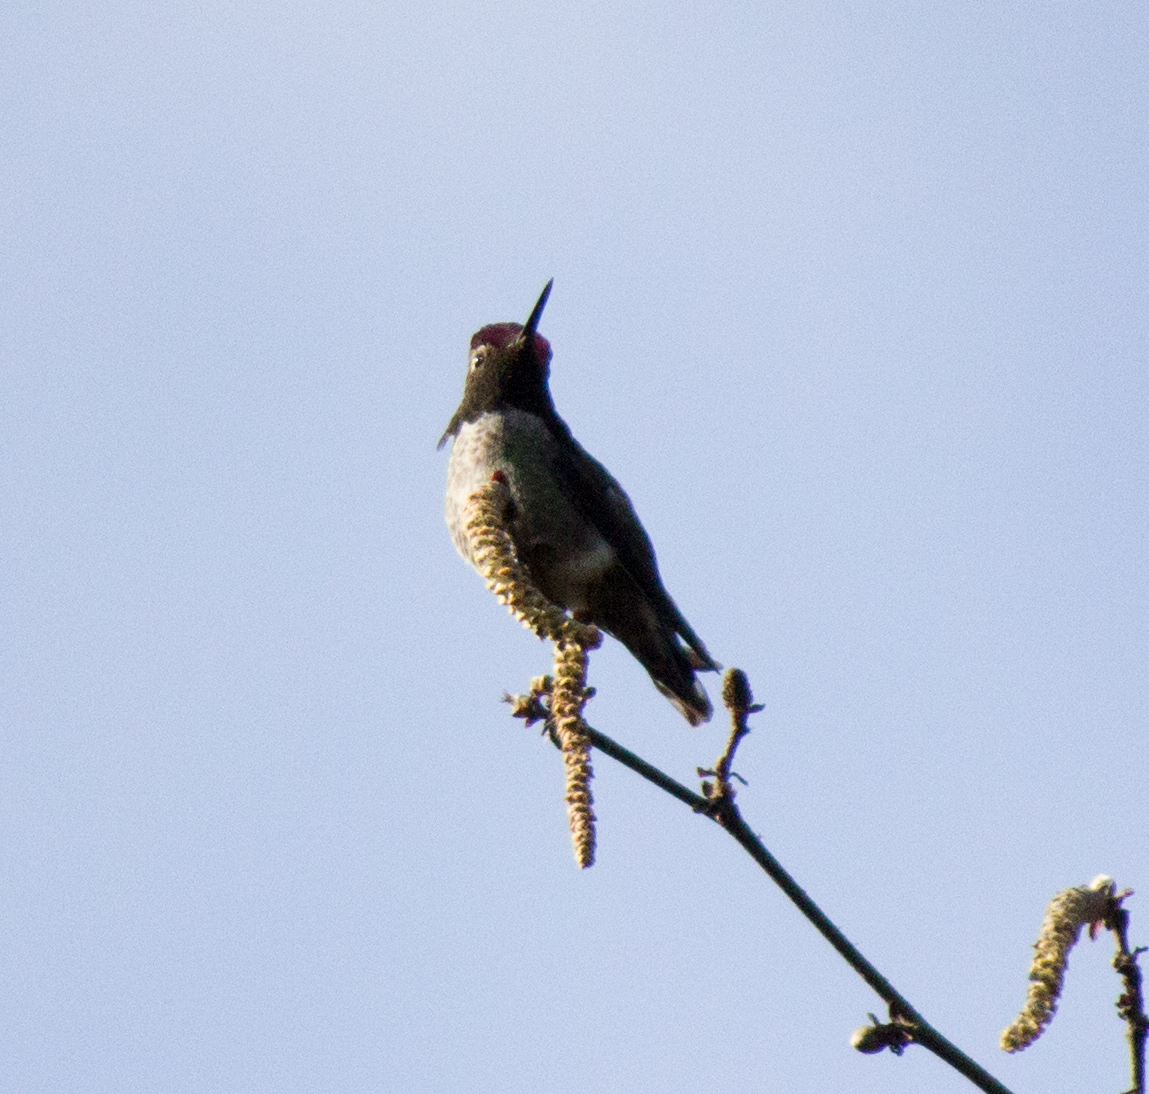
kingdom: Animalia
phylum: Chordata
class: Aves
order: Apodiformes
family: Trochilidae
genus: Calypte
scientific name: Calypte anna
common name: Anna's hummingbird
